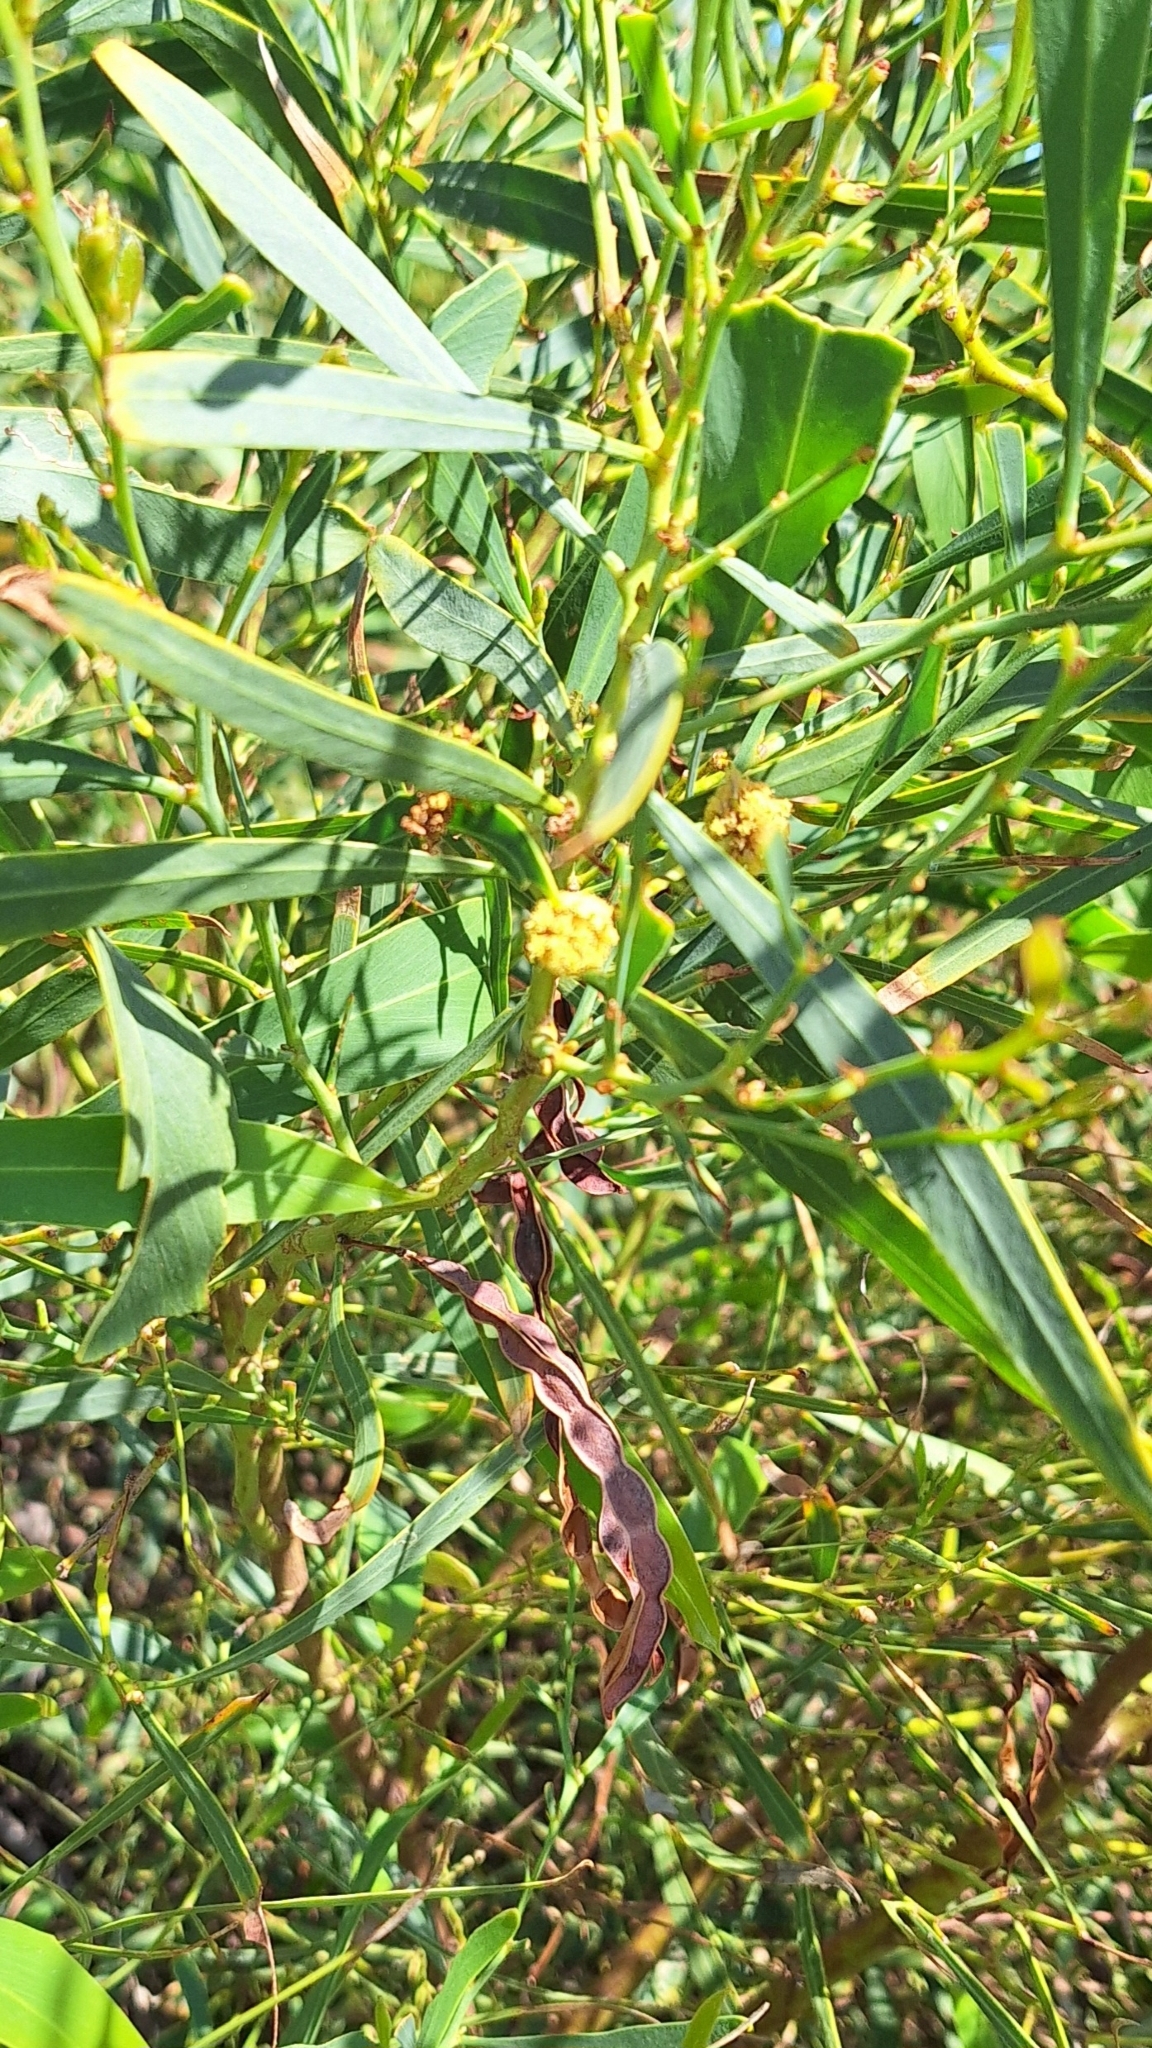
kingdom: Plantae
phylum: Tracheophyta
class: Magnoliopsida
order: Fabales
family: Fabaceae
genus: Acacia
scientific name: Acacia saligna
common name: Orange wattle
